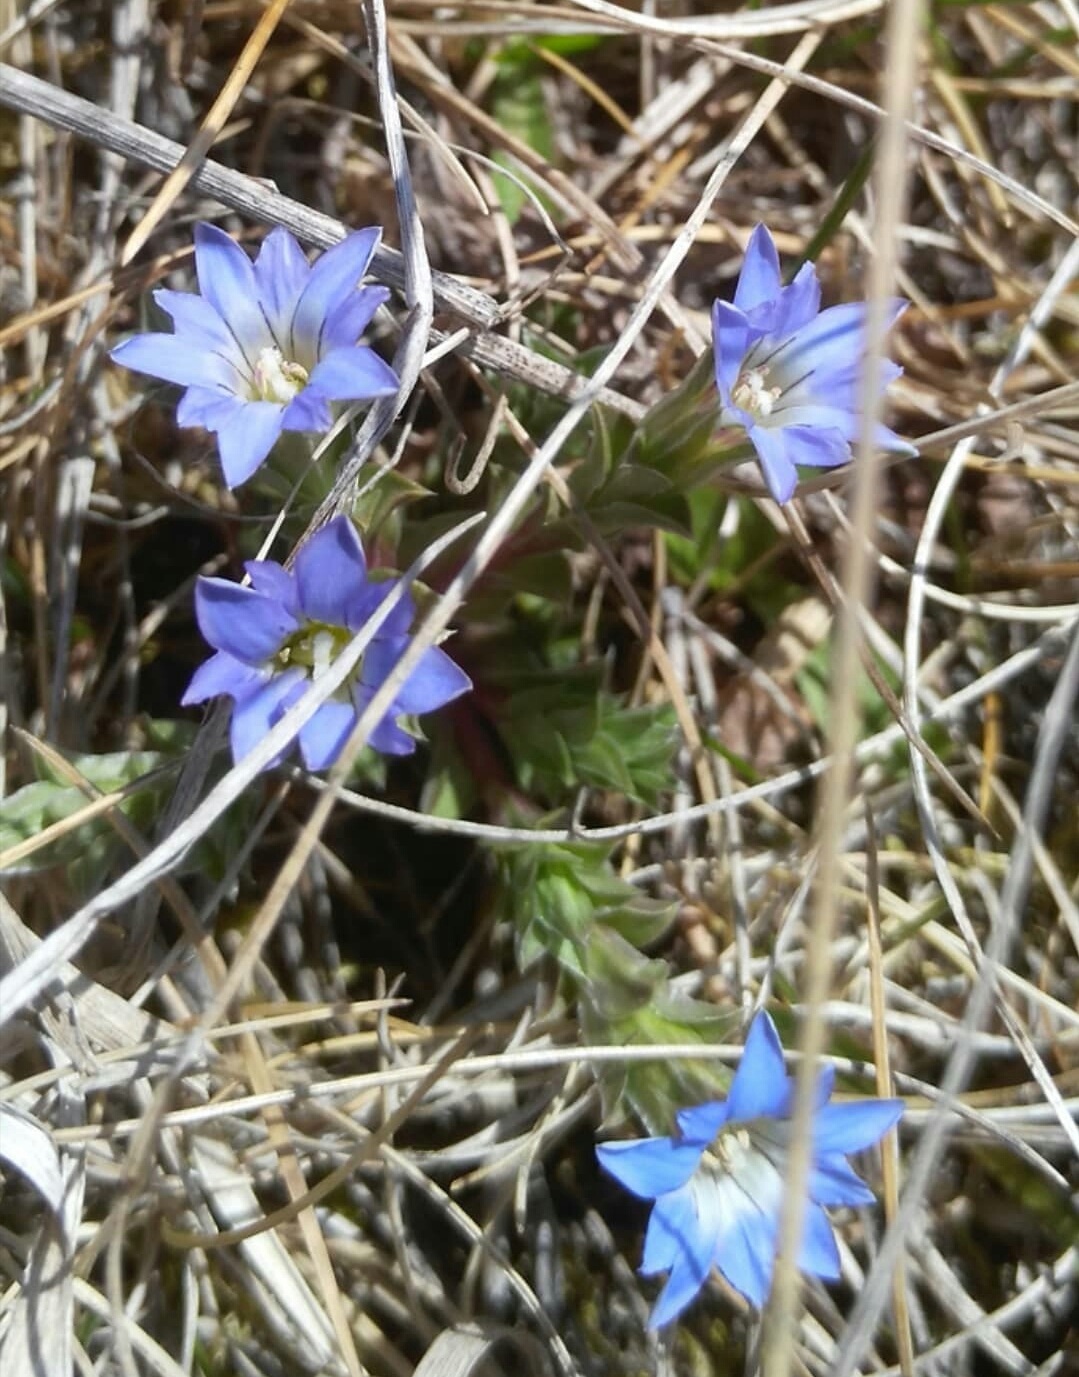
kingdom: Plantae
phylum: Tracheophyta
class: Magnoliopsida
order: Gentianales
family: Gentianaceae
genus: Gentiana
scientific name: Gentiana squarrosa
